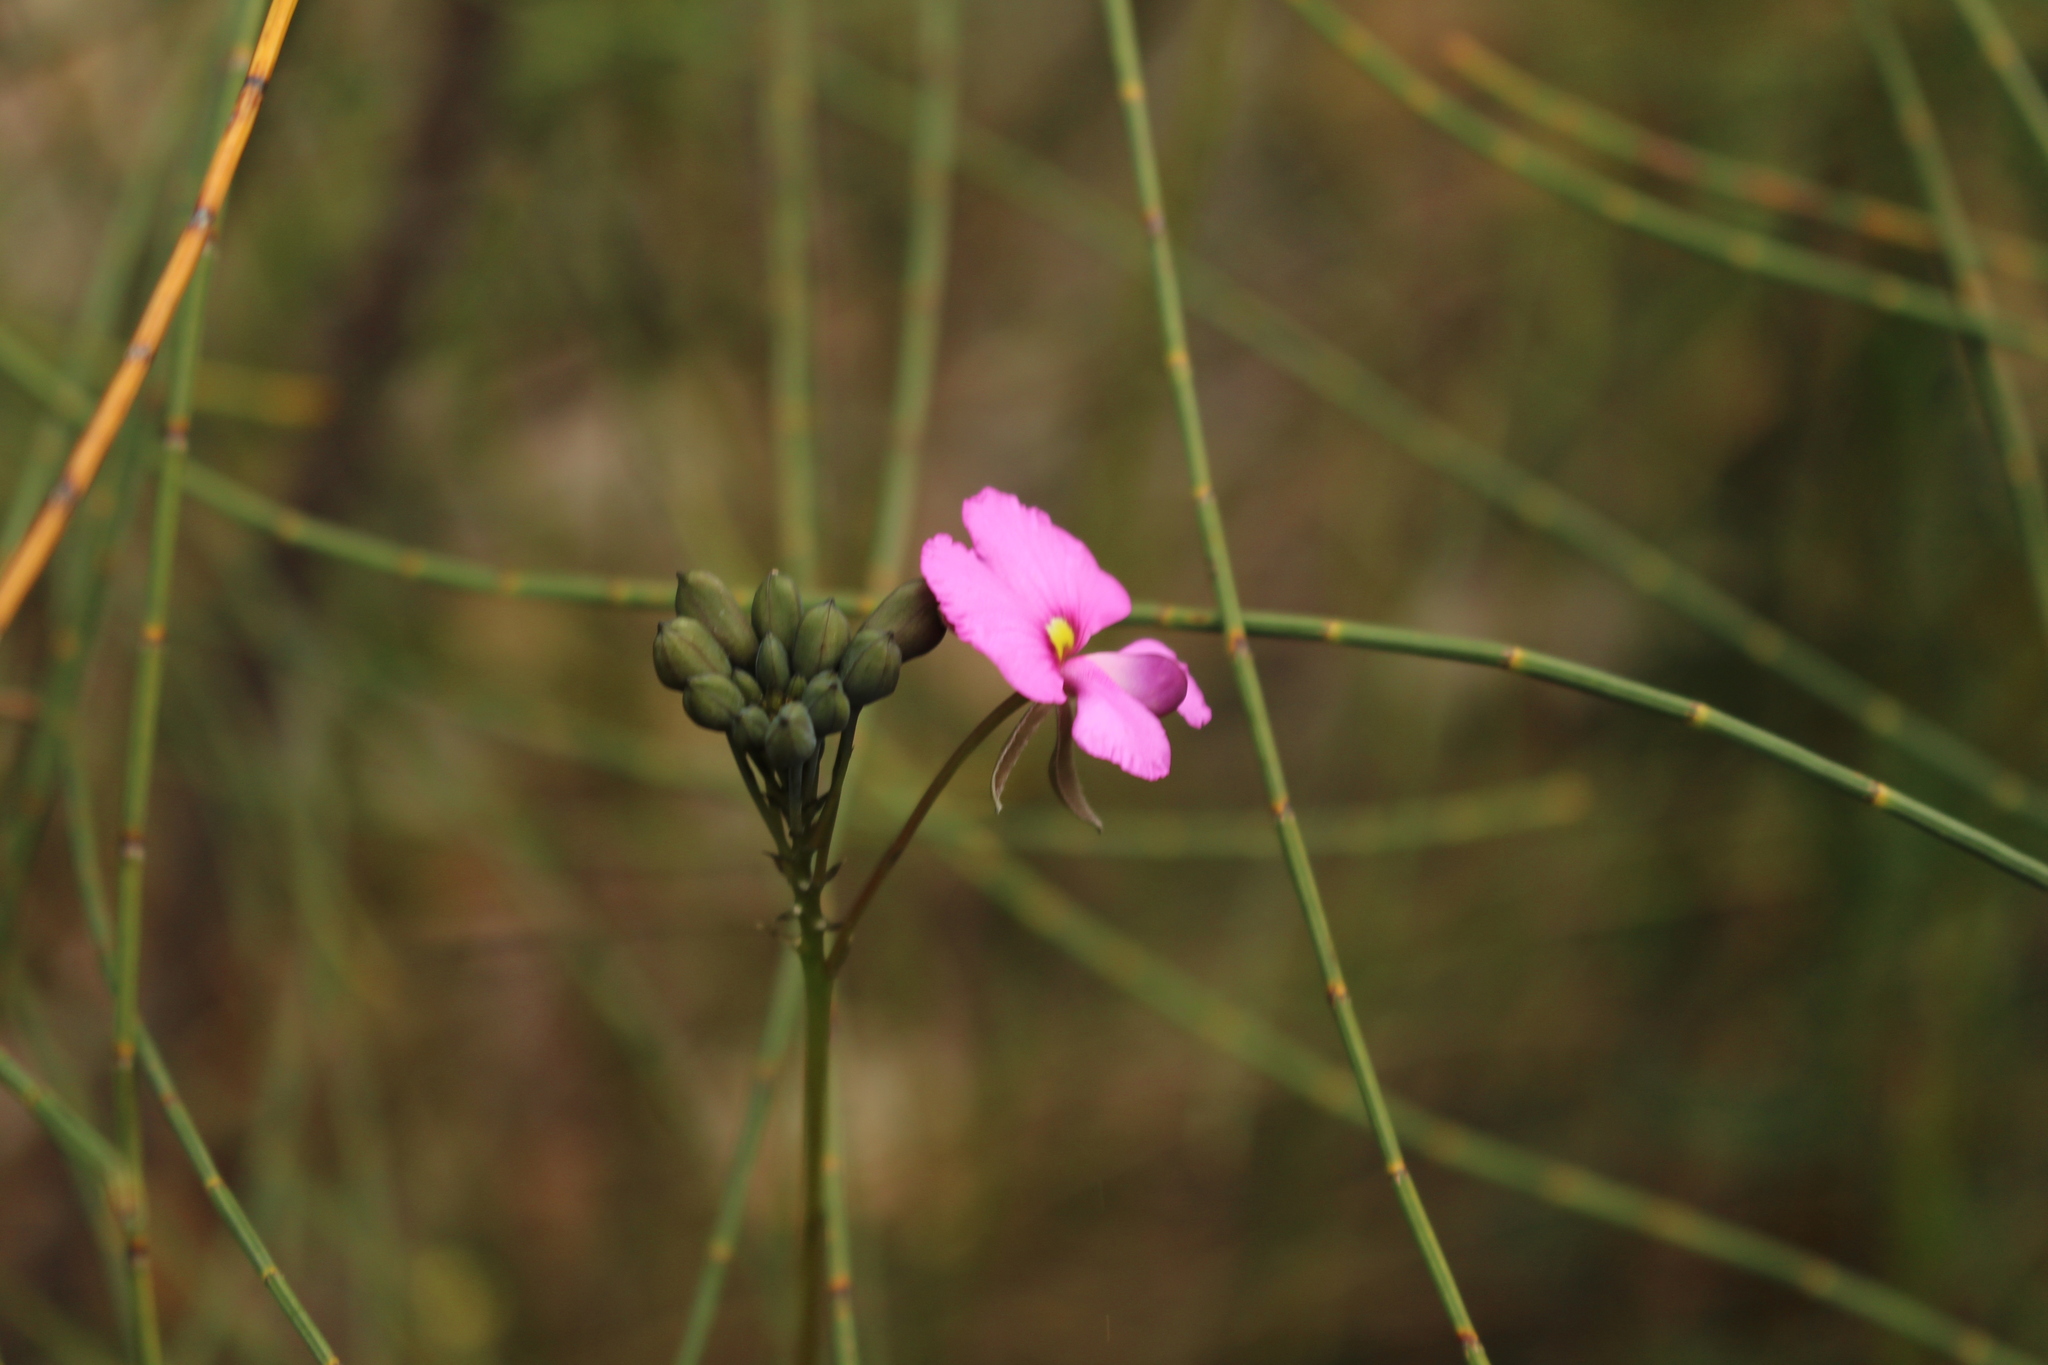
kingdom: Plantae
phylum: Tracheophyta
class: Magnoliopsida
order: Fabales
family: Fabaceae
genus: Gompholobium
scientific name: Gompholobium venustum
